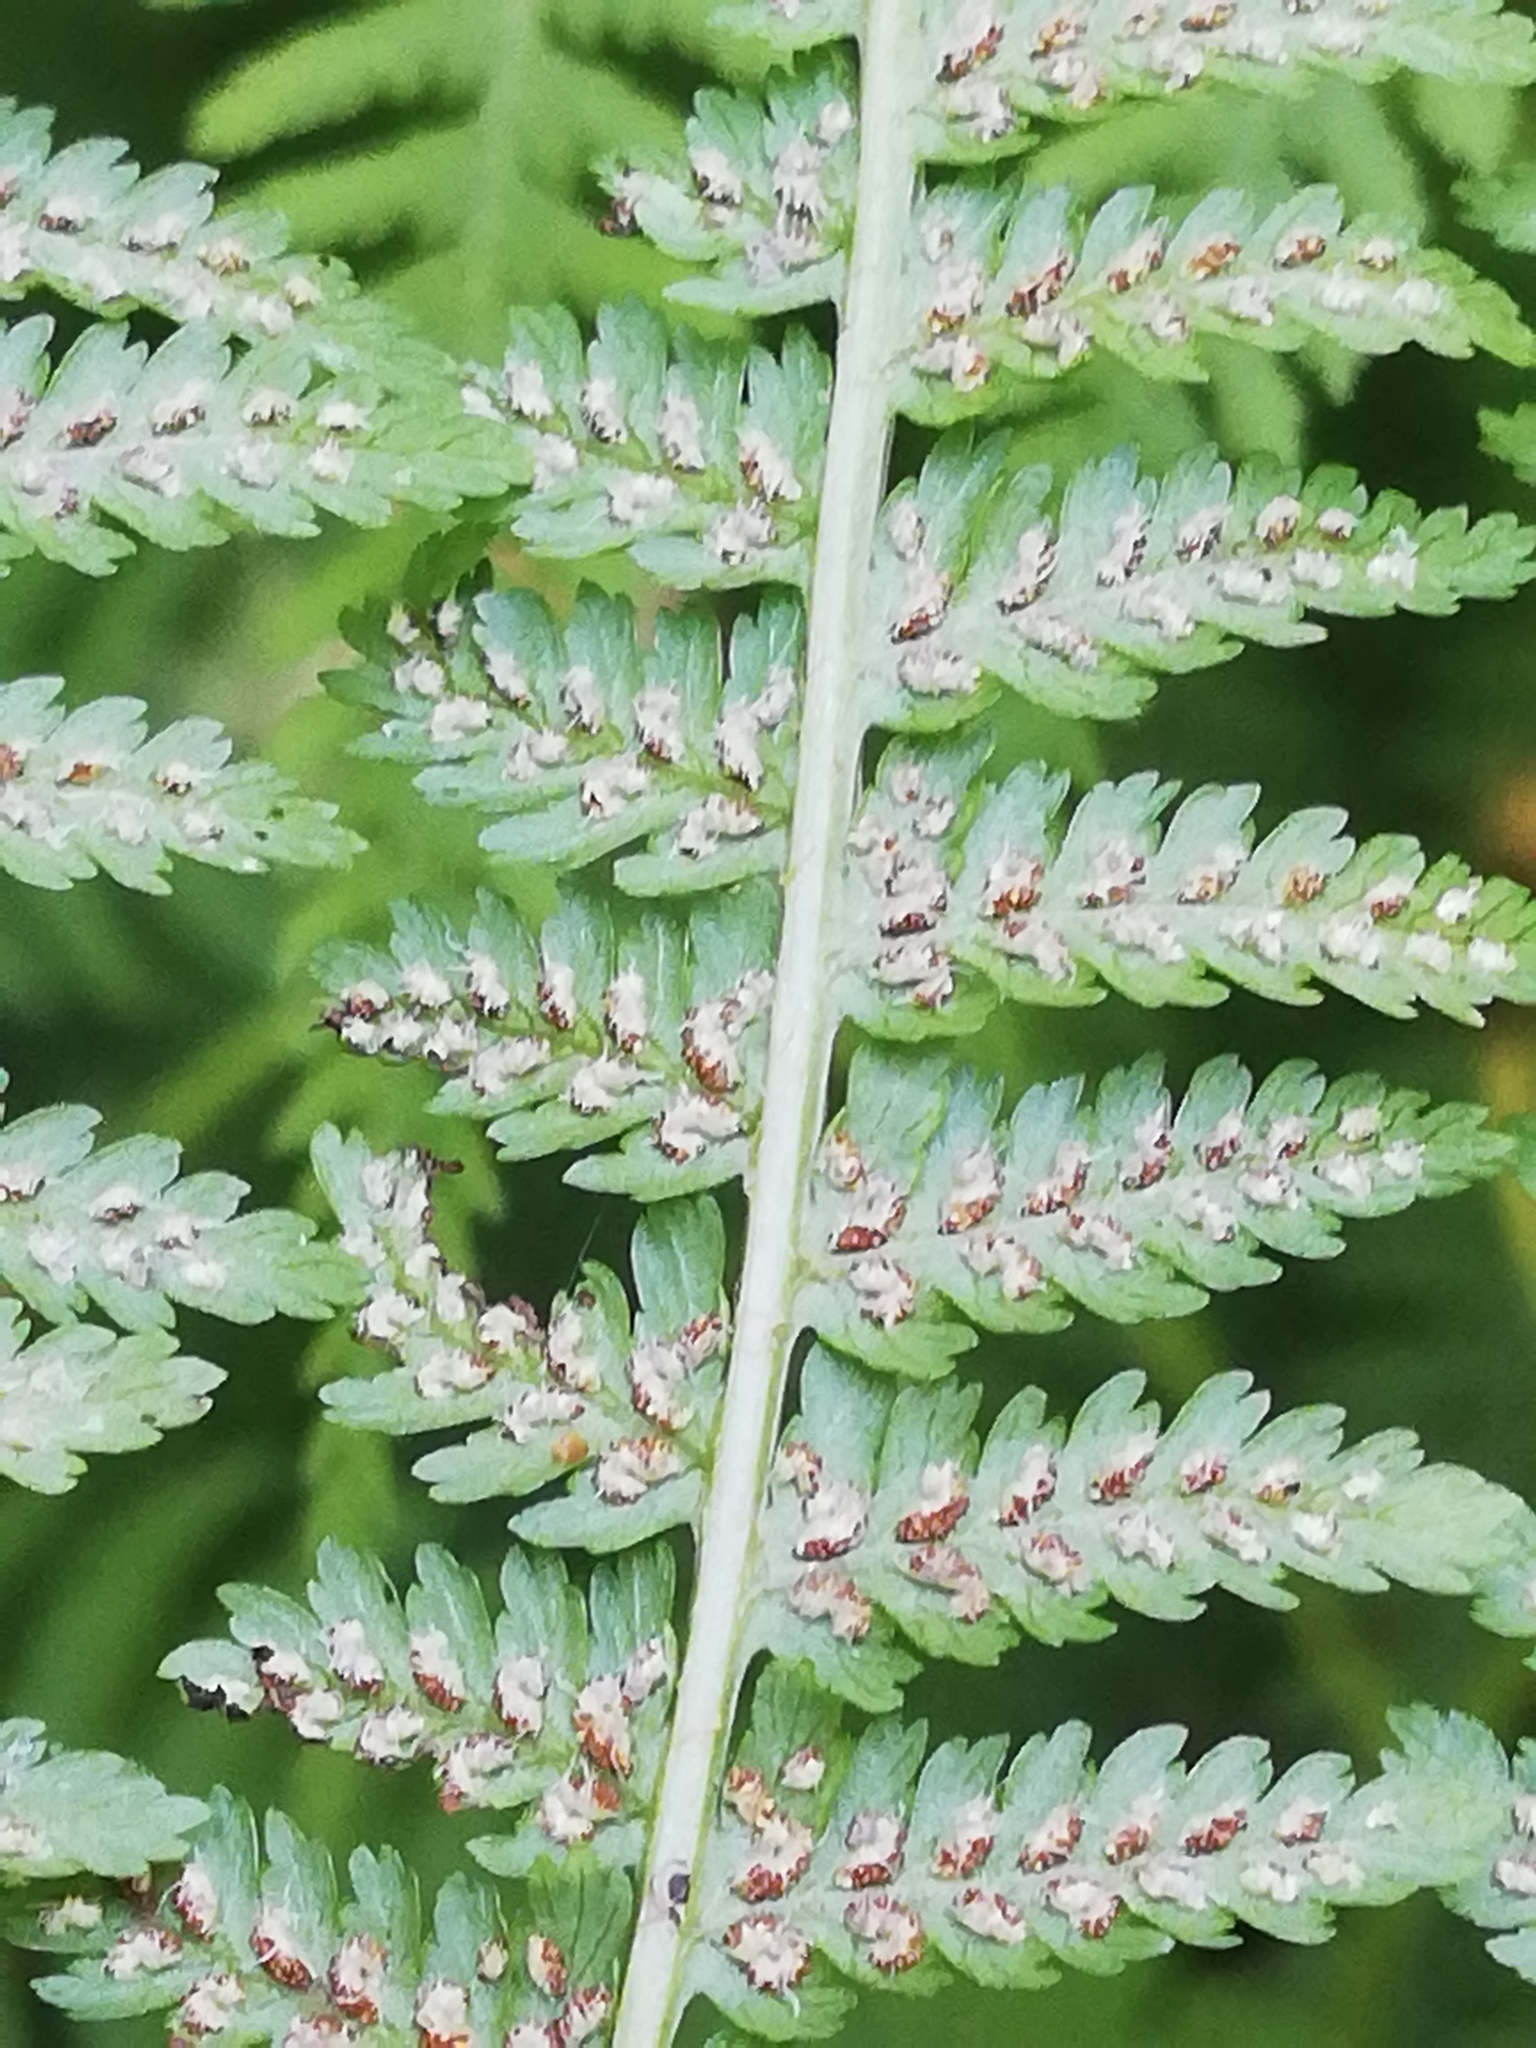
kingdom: Plantae
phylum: Tracheophyta
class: Polypodiopsida
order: Polypodiales
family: Athyriaceae
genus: Athyrium
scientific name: Athyrium filix-femina
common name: Lady fern
